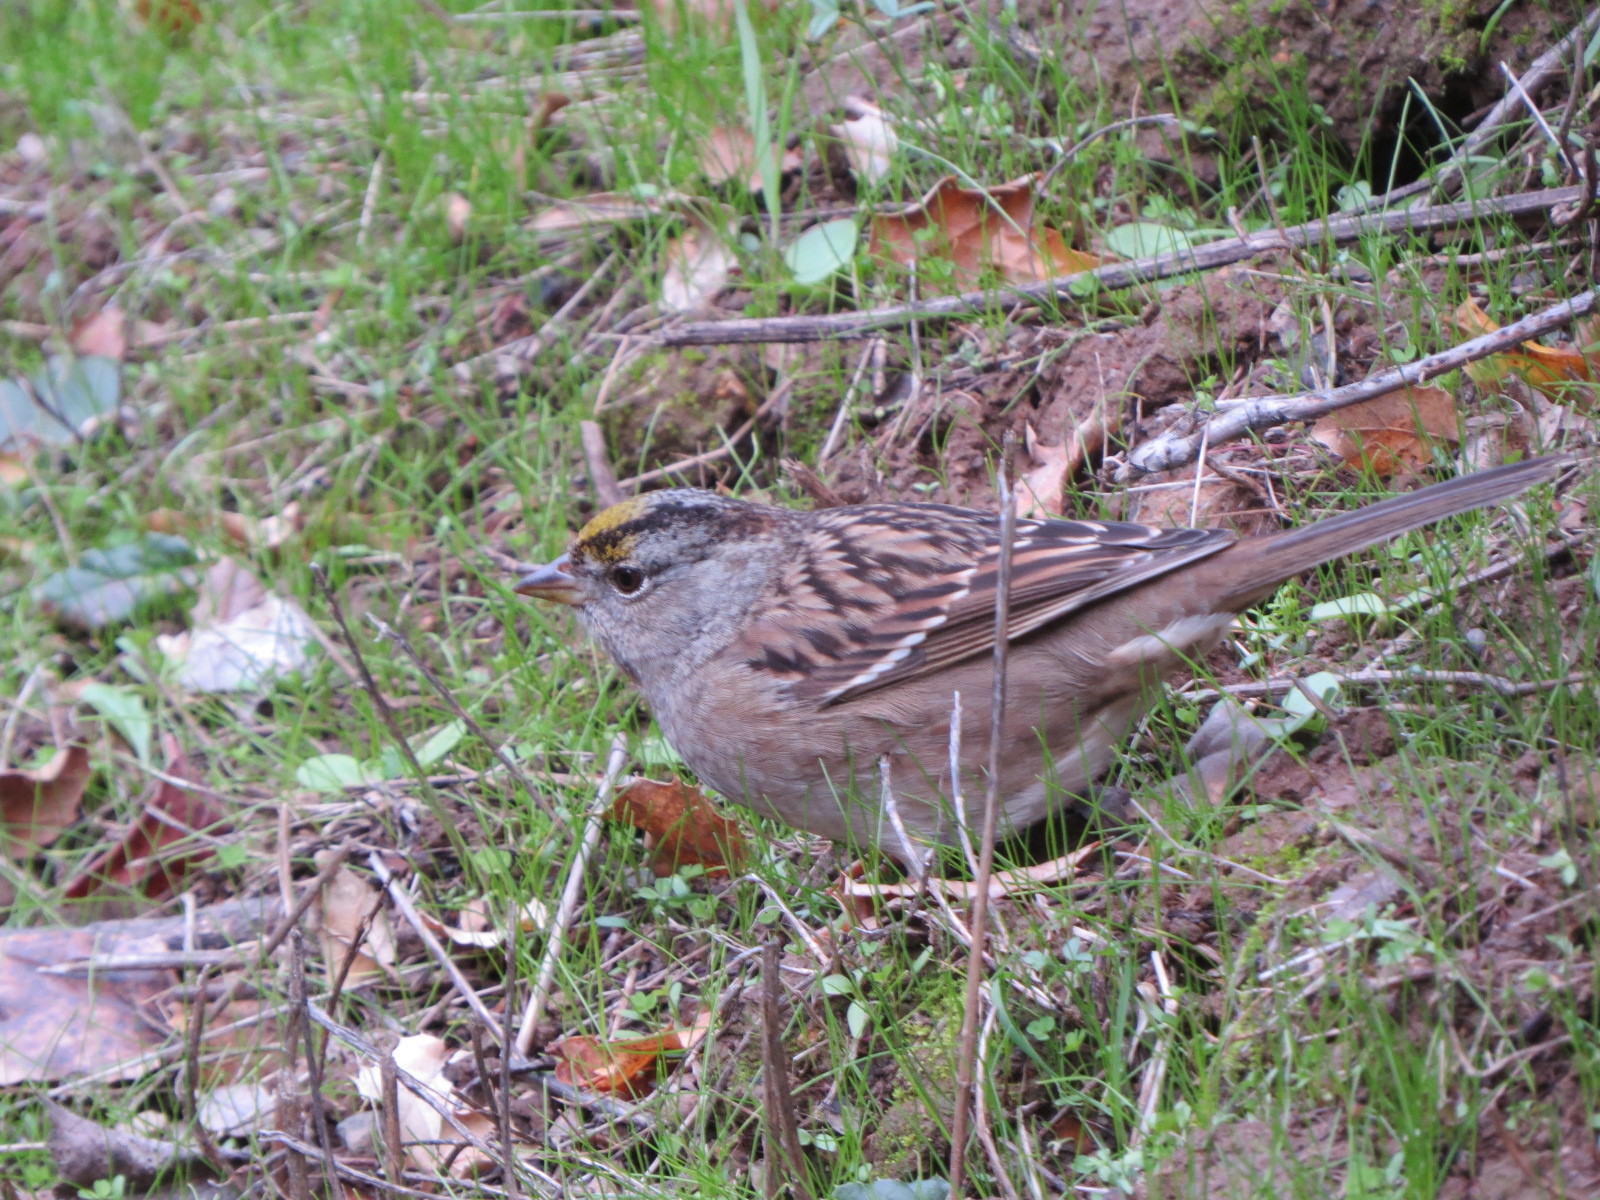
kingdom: Animalia
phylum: Chordata
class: Aves
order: Passeriformes
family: Passerellidae
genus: Zonotrichia
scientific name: Zonotrichia atricapilla
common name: Golden-crowned sparrow
